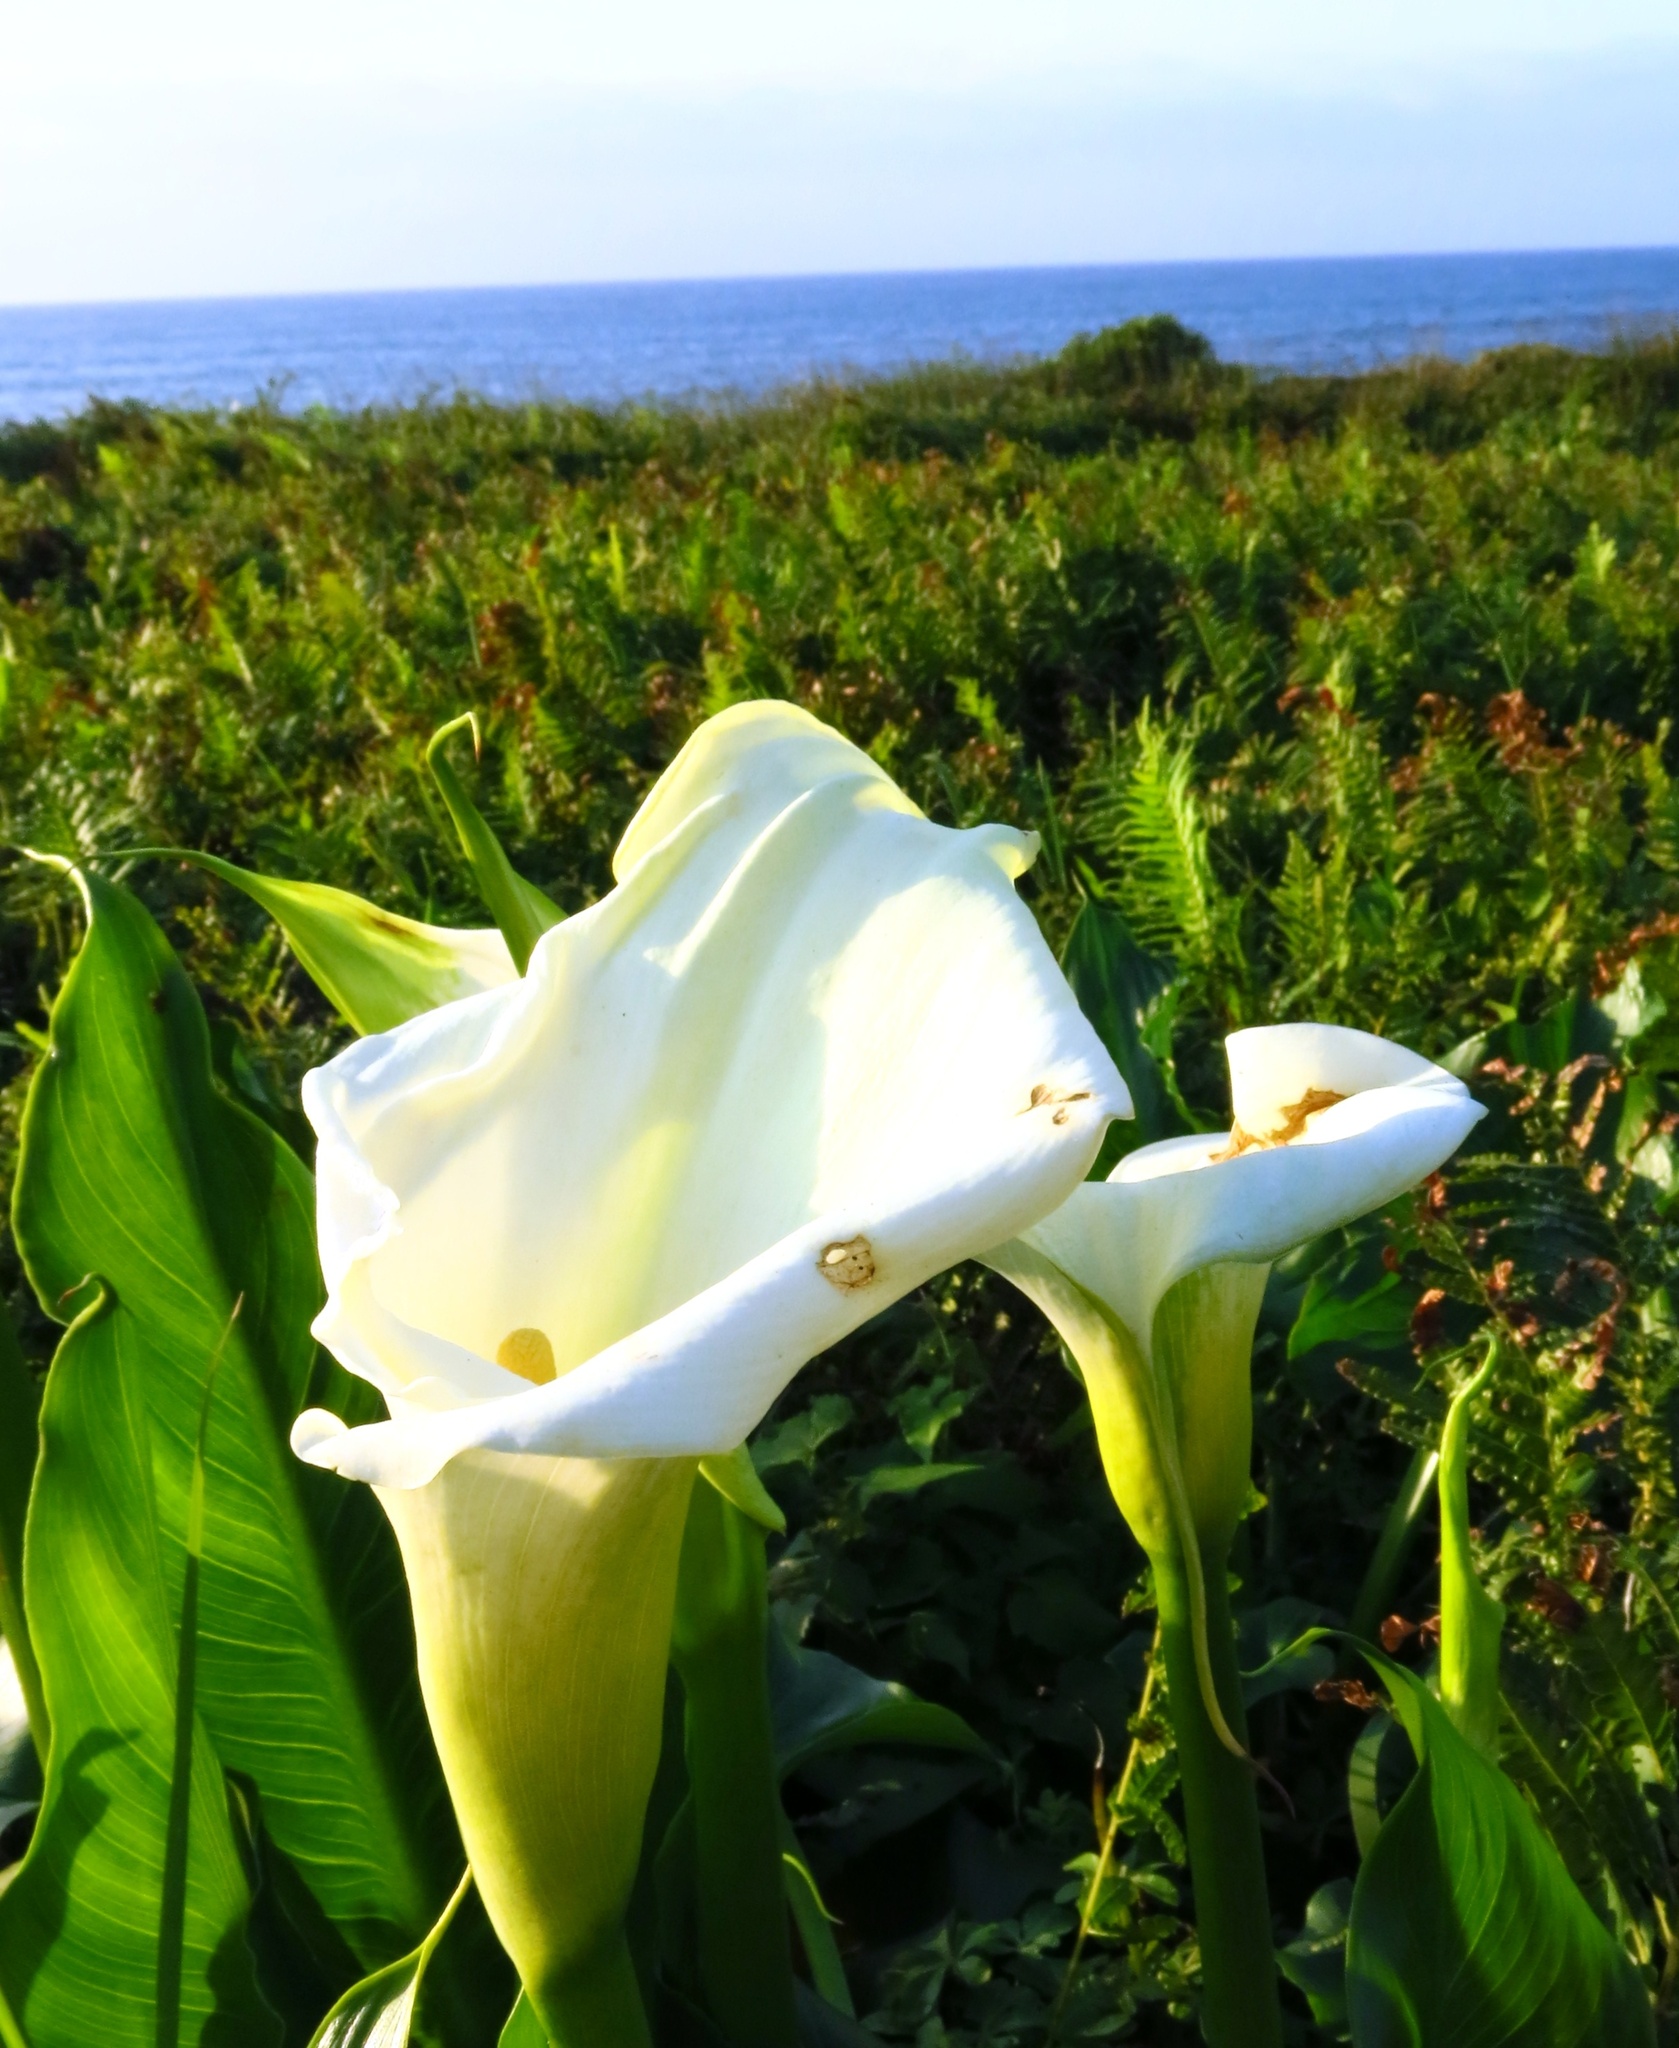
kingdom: Plantae
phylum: Tracheophyta
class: Liliopsida
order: Alismatales
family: Araceae
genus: Zantedeschia
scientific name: Zantedeschia aethiopica
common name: Altar-lily
